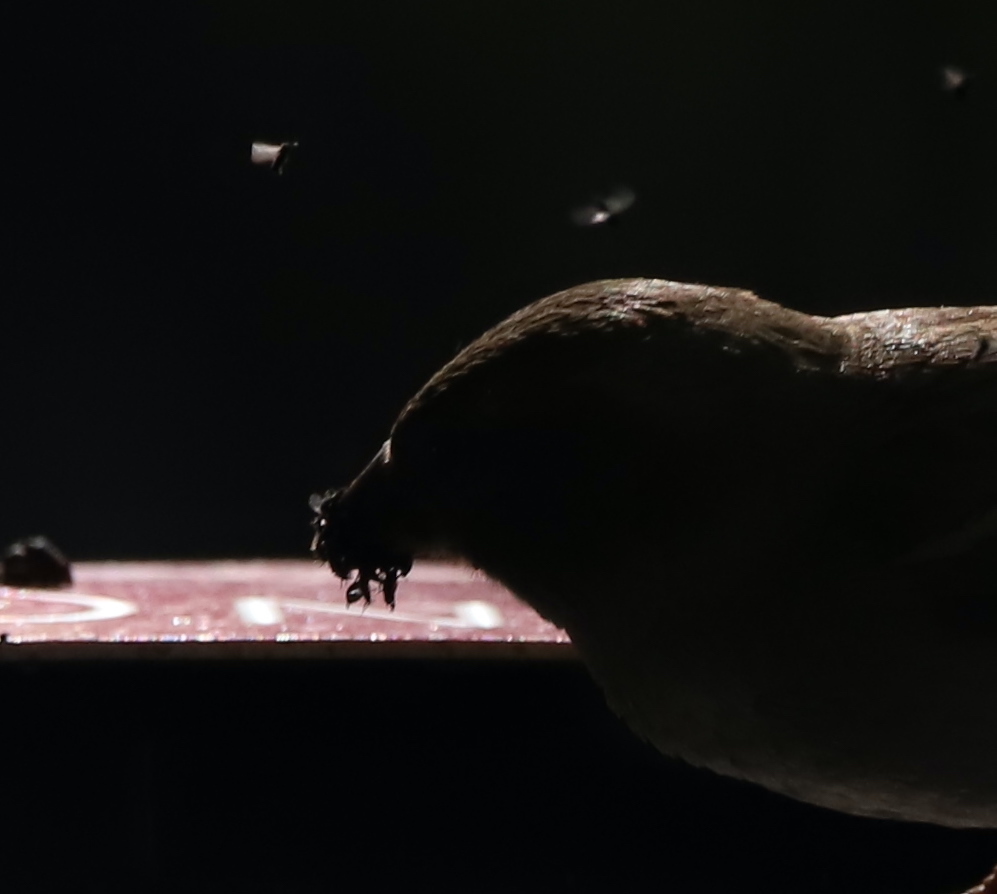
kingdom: Animalia
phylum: Chordata
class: Aves
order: Passeriformes
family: Passeridae
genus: Passer
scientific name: Passer domesticus
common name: House sparrow
